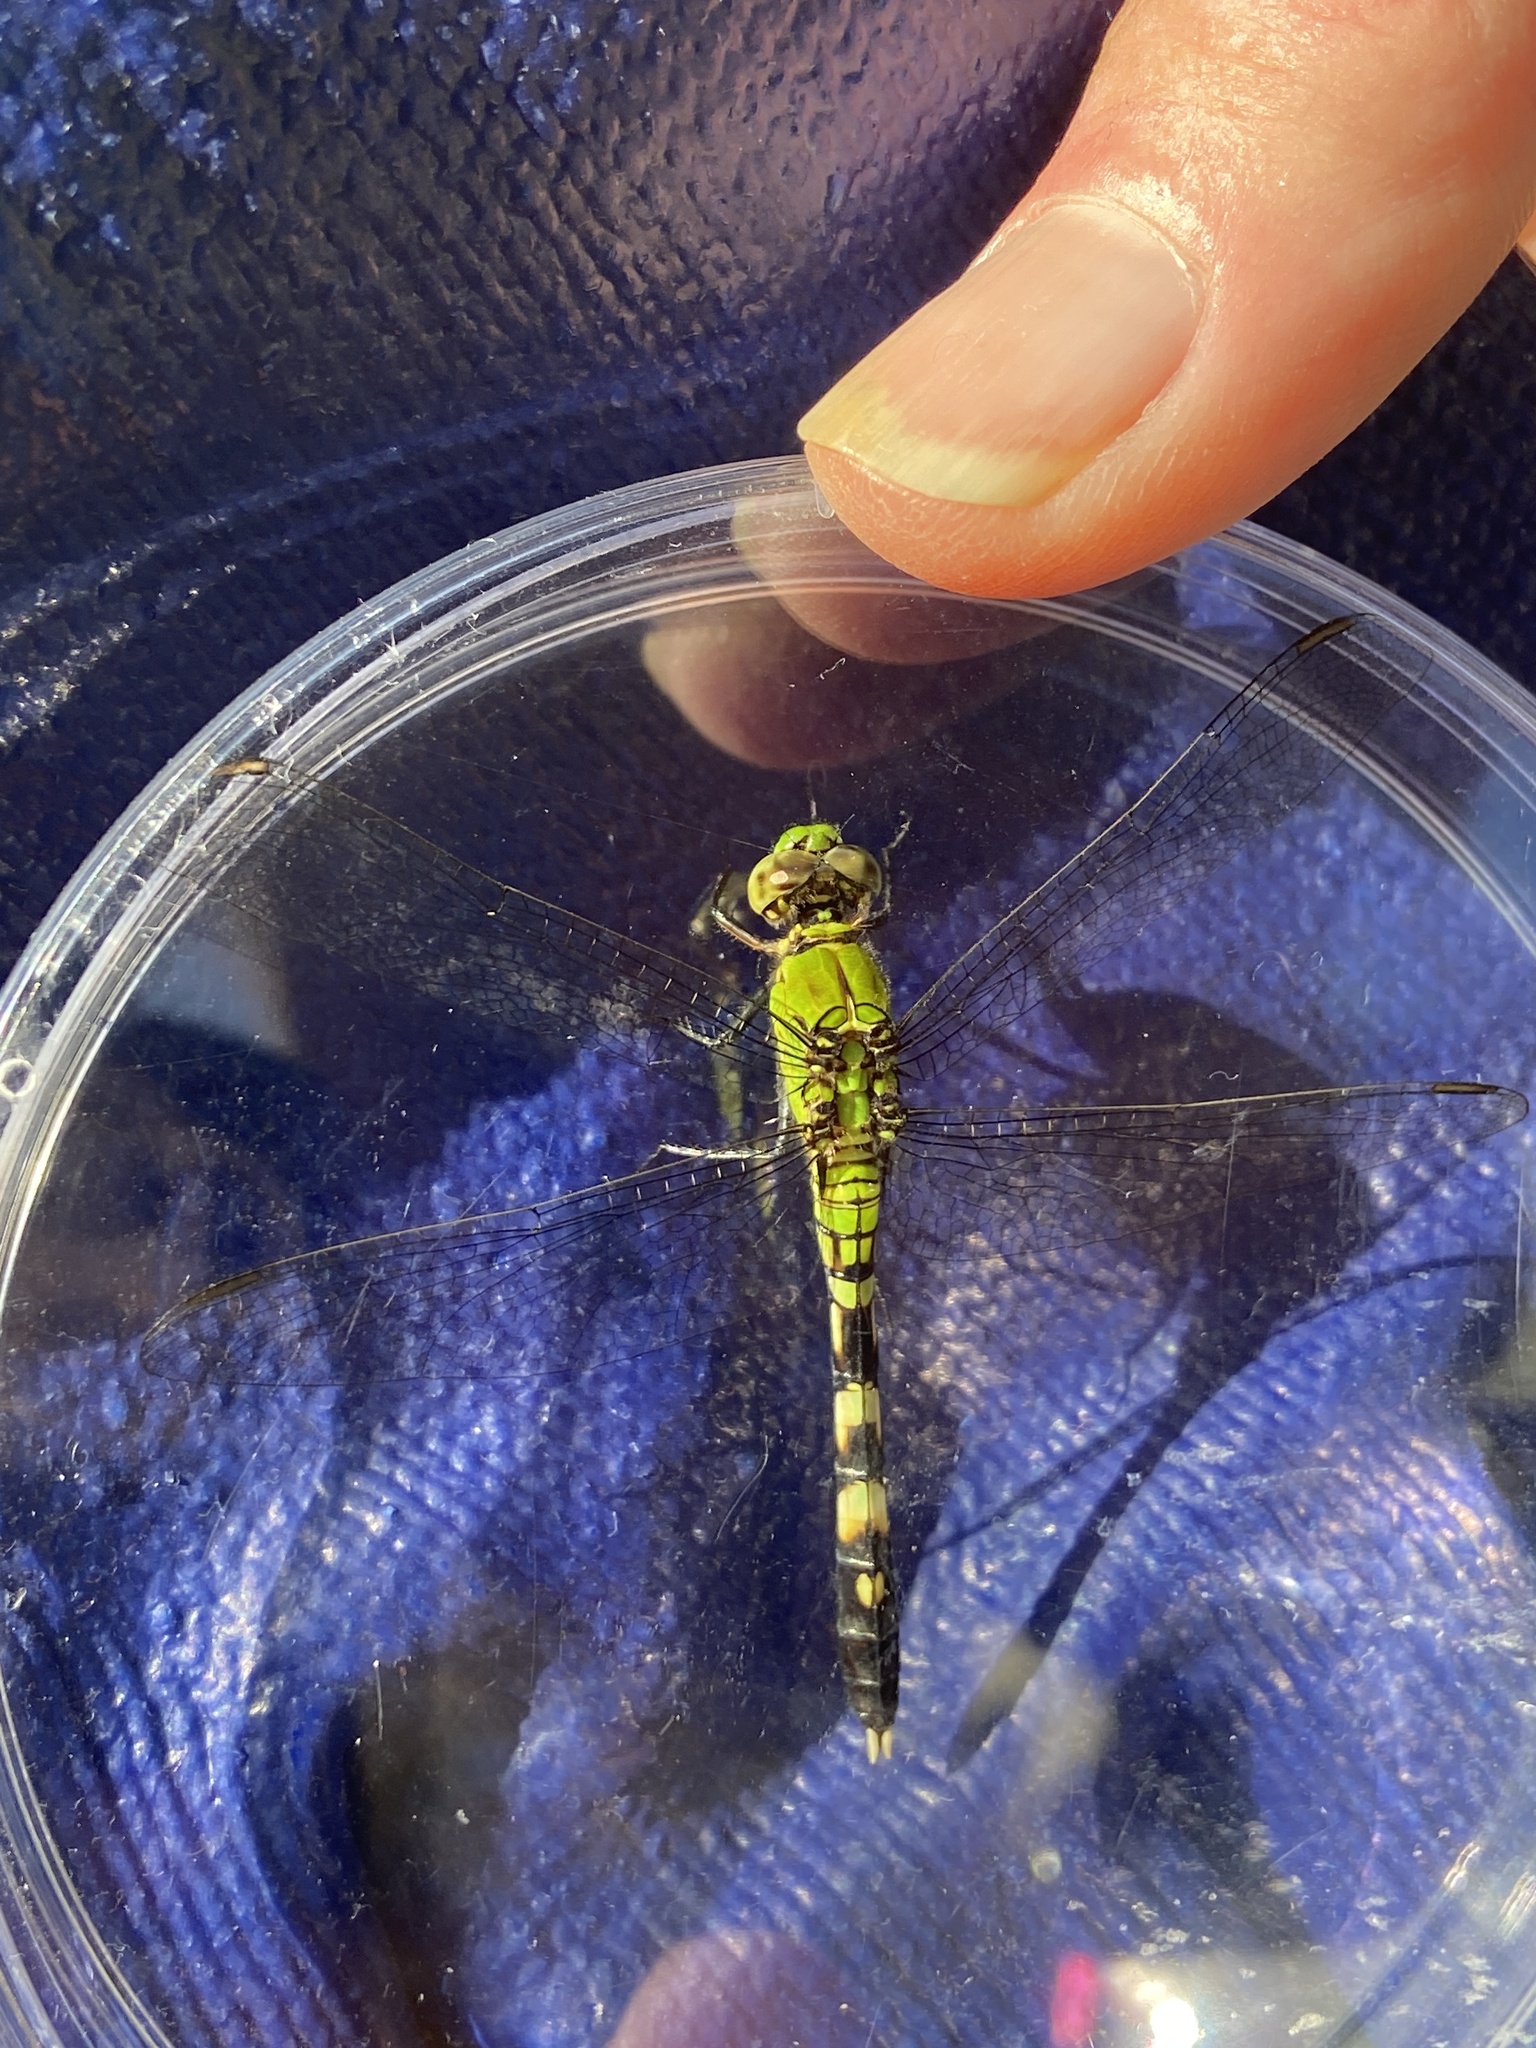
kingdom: Animalia
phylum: Arthropoda
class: Insecta
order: Odonata
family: Libellulidae
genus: Erythemis
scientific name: Erythemis simplicicollis
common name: Eastern pondhawk
